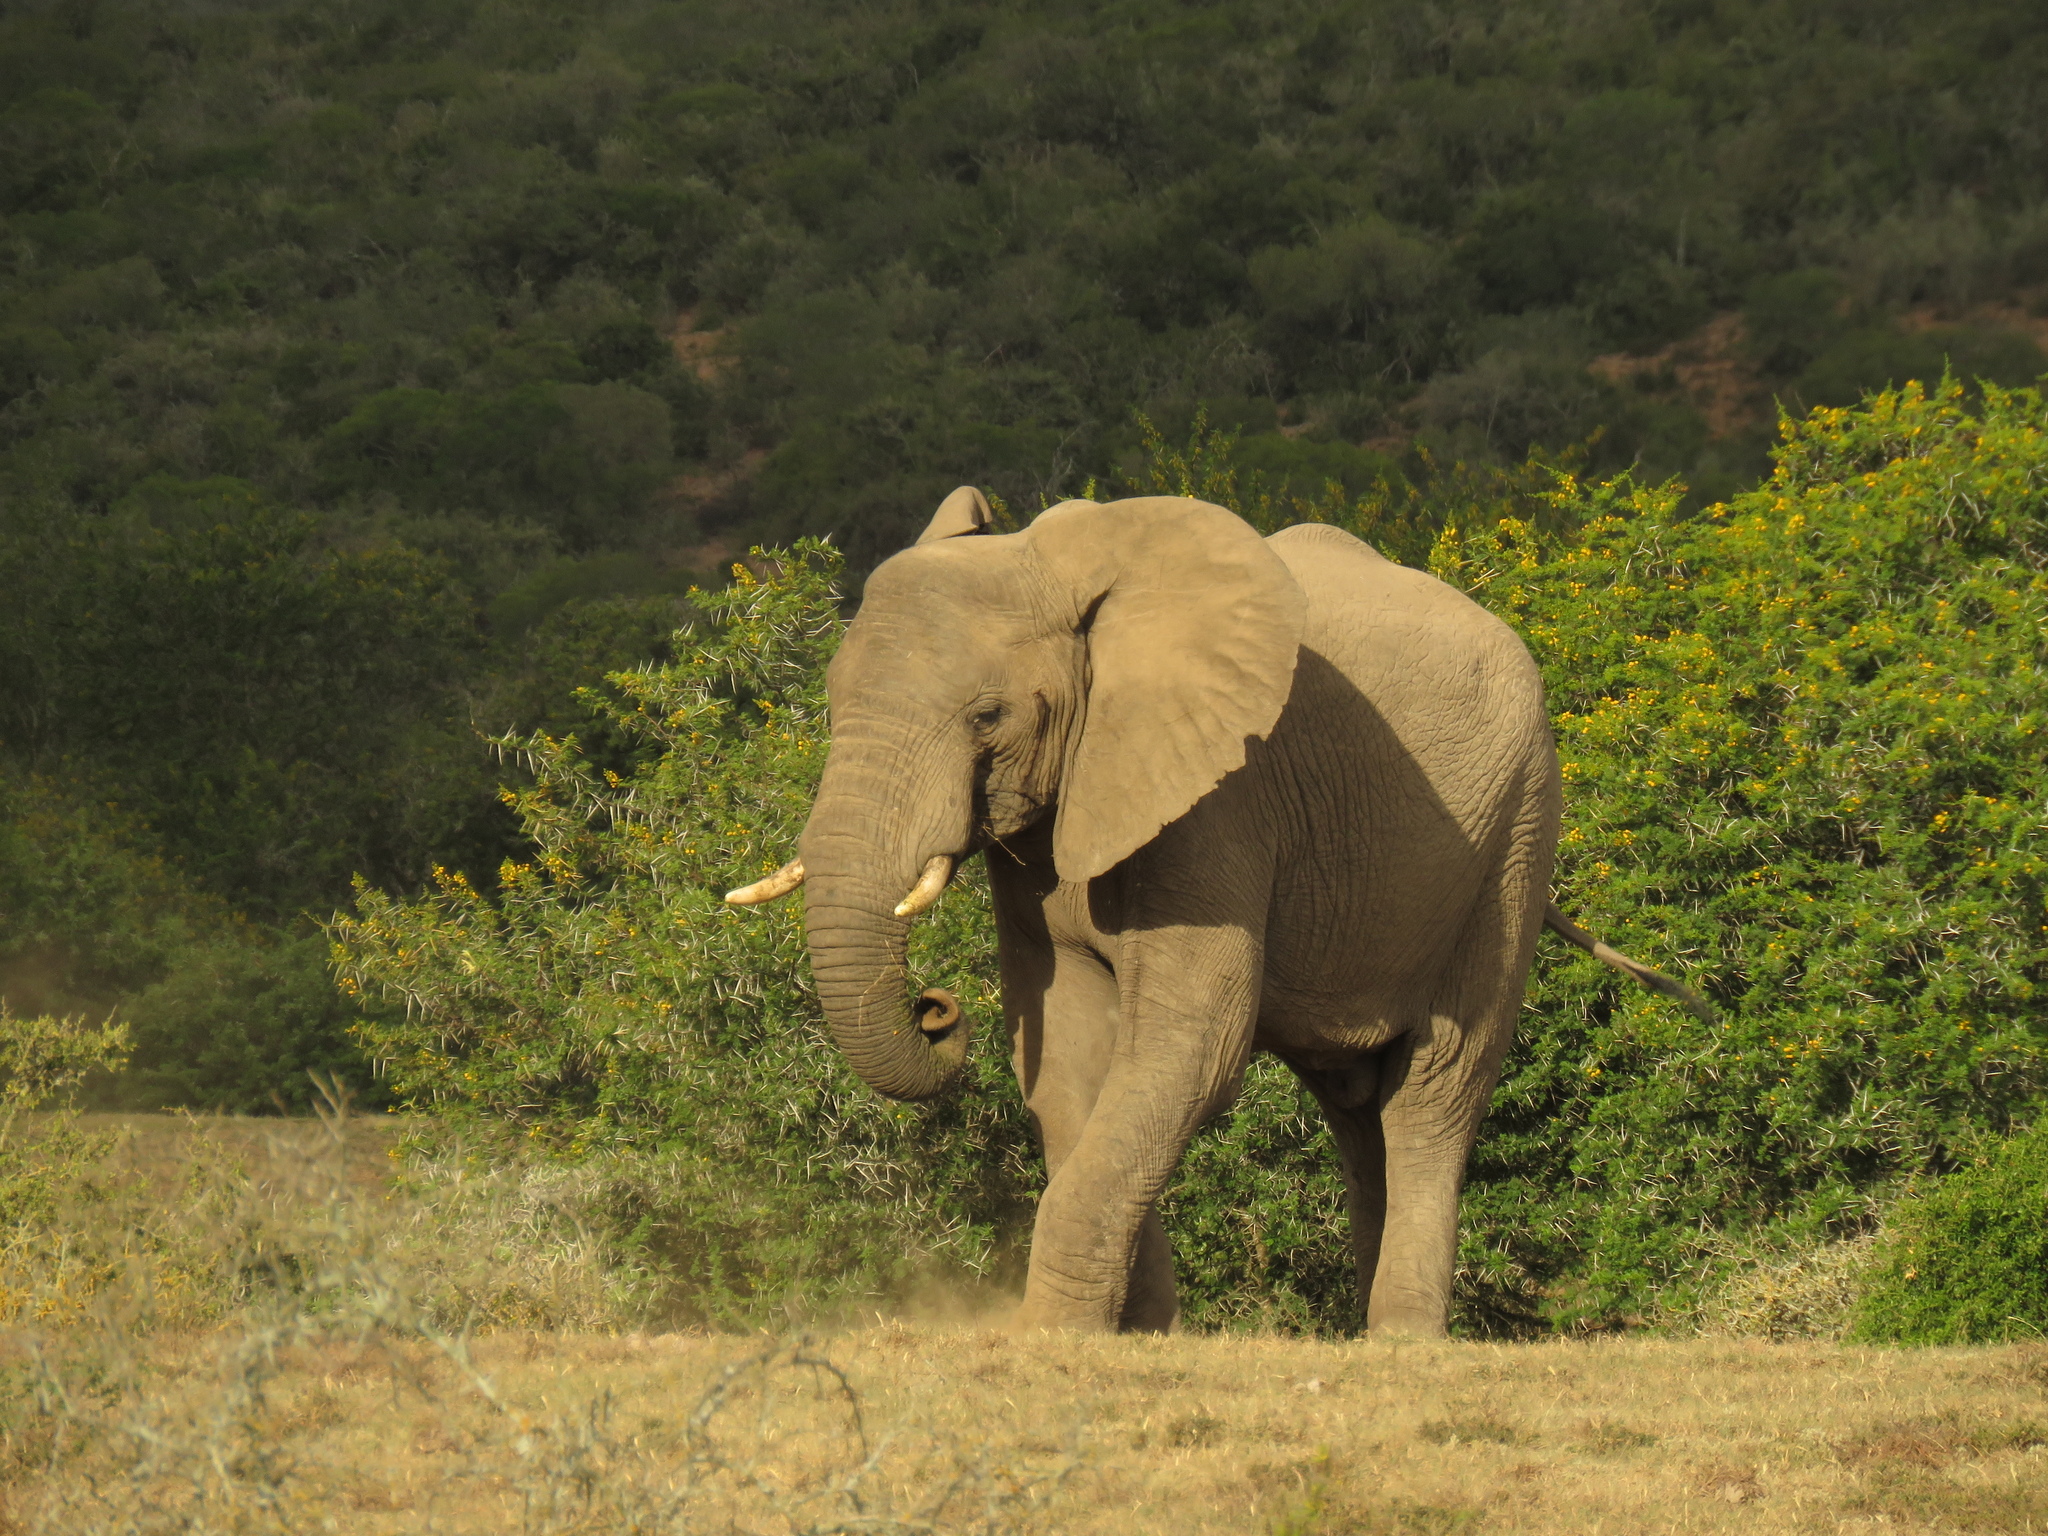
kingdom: Animalia
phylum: Chordata
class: Mammalia
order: Proboscidea
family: Elephantidae
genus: Loxodonta
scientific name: Loxodonta africana
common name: African elephant
